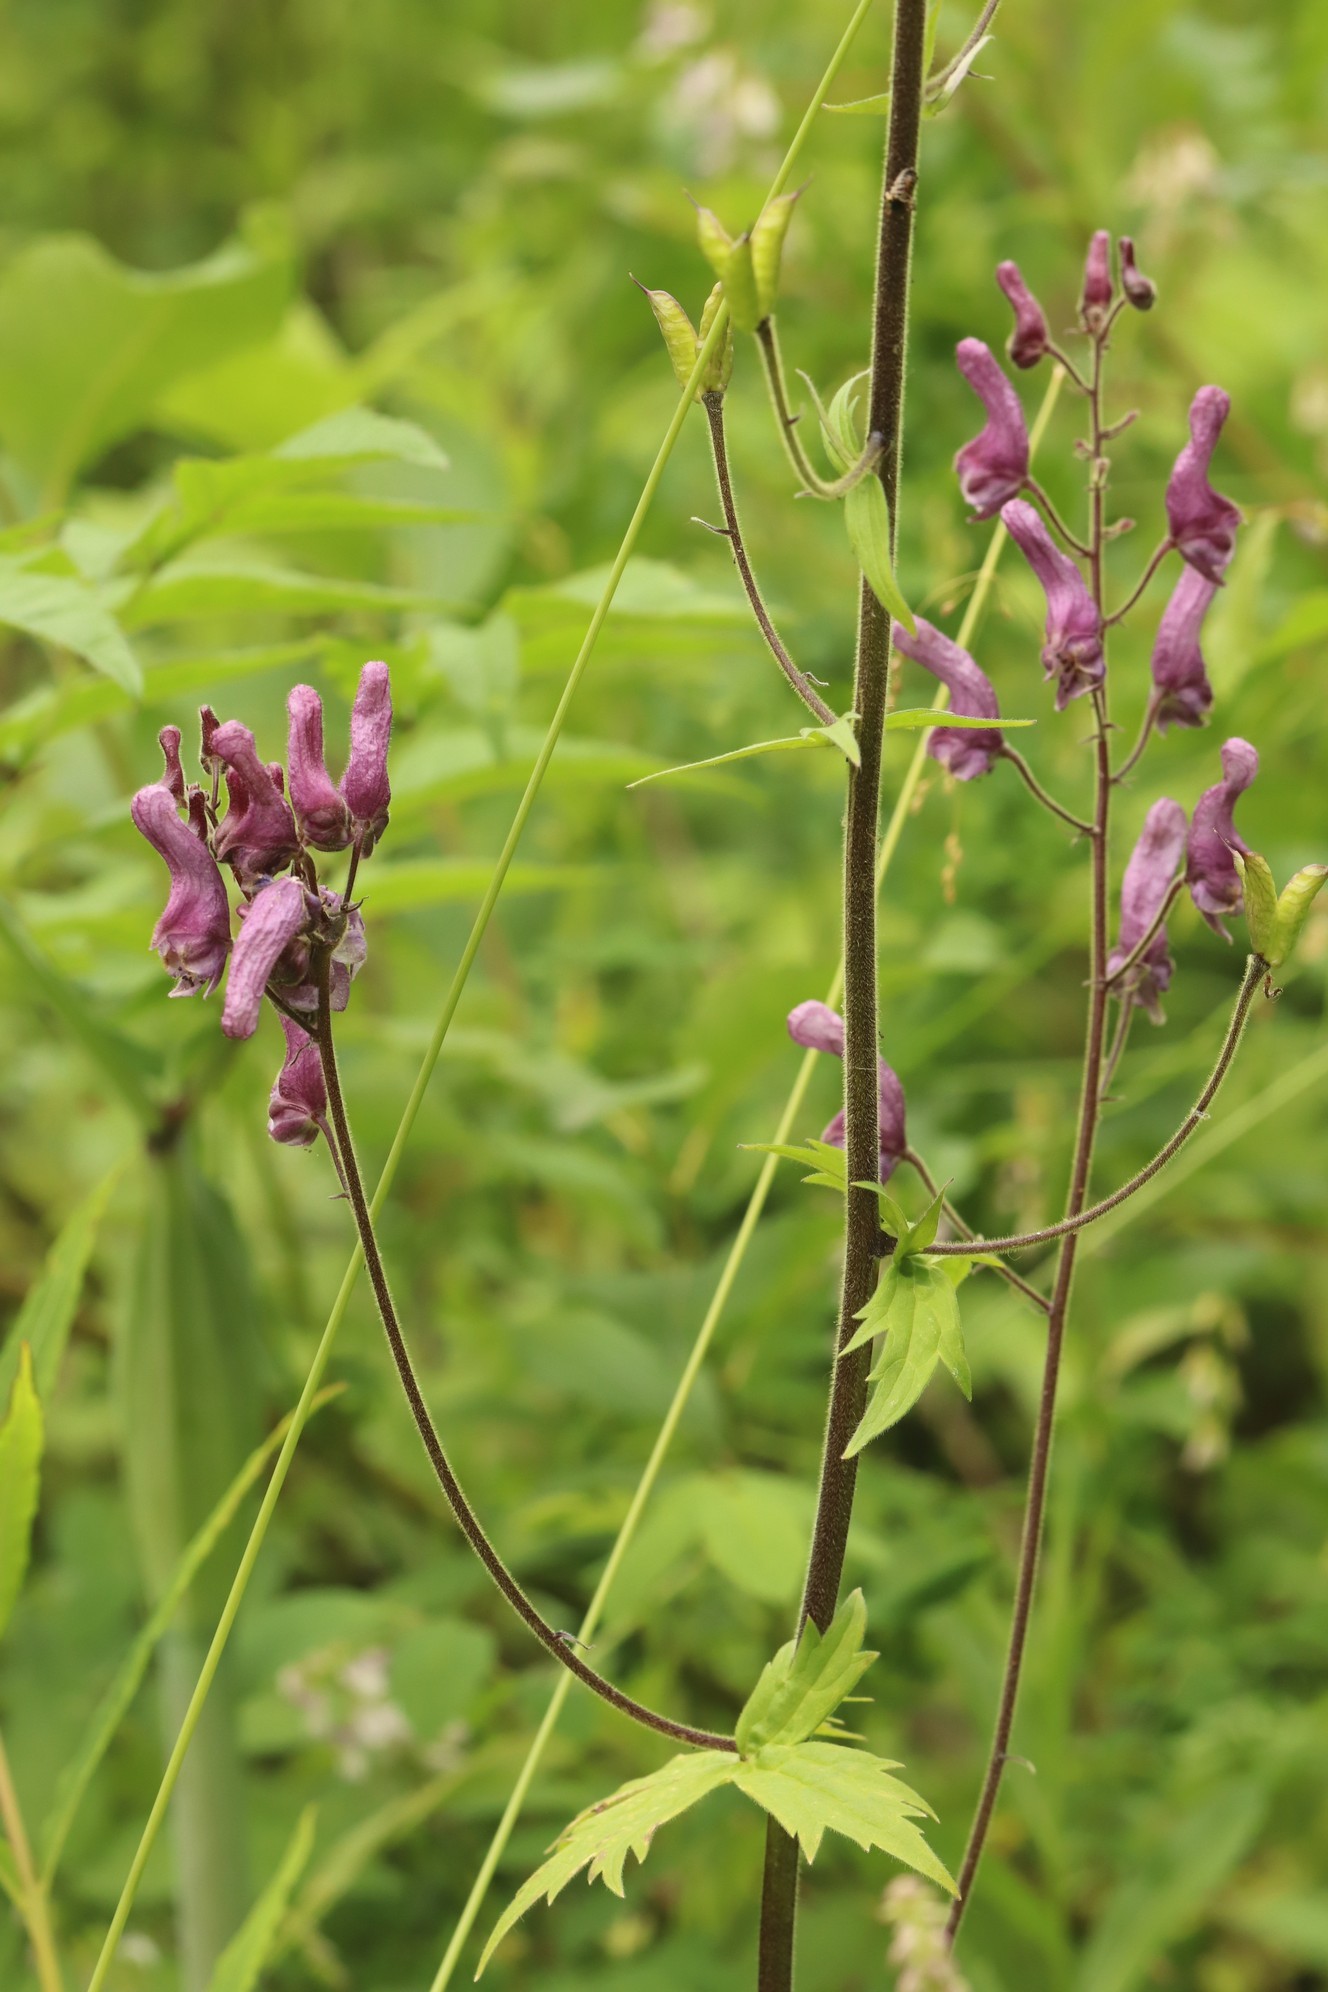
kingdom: Plantae
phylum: Tracheophyta
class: Magnoliopsida
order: Ranunculales
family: Ranunculaceae
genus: Aconitum
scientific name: Aconitum septentrionale
